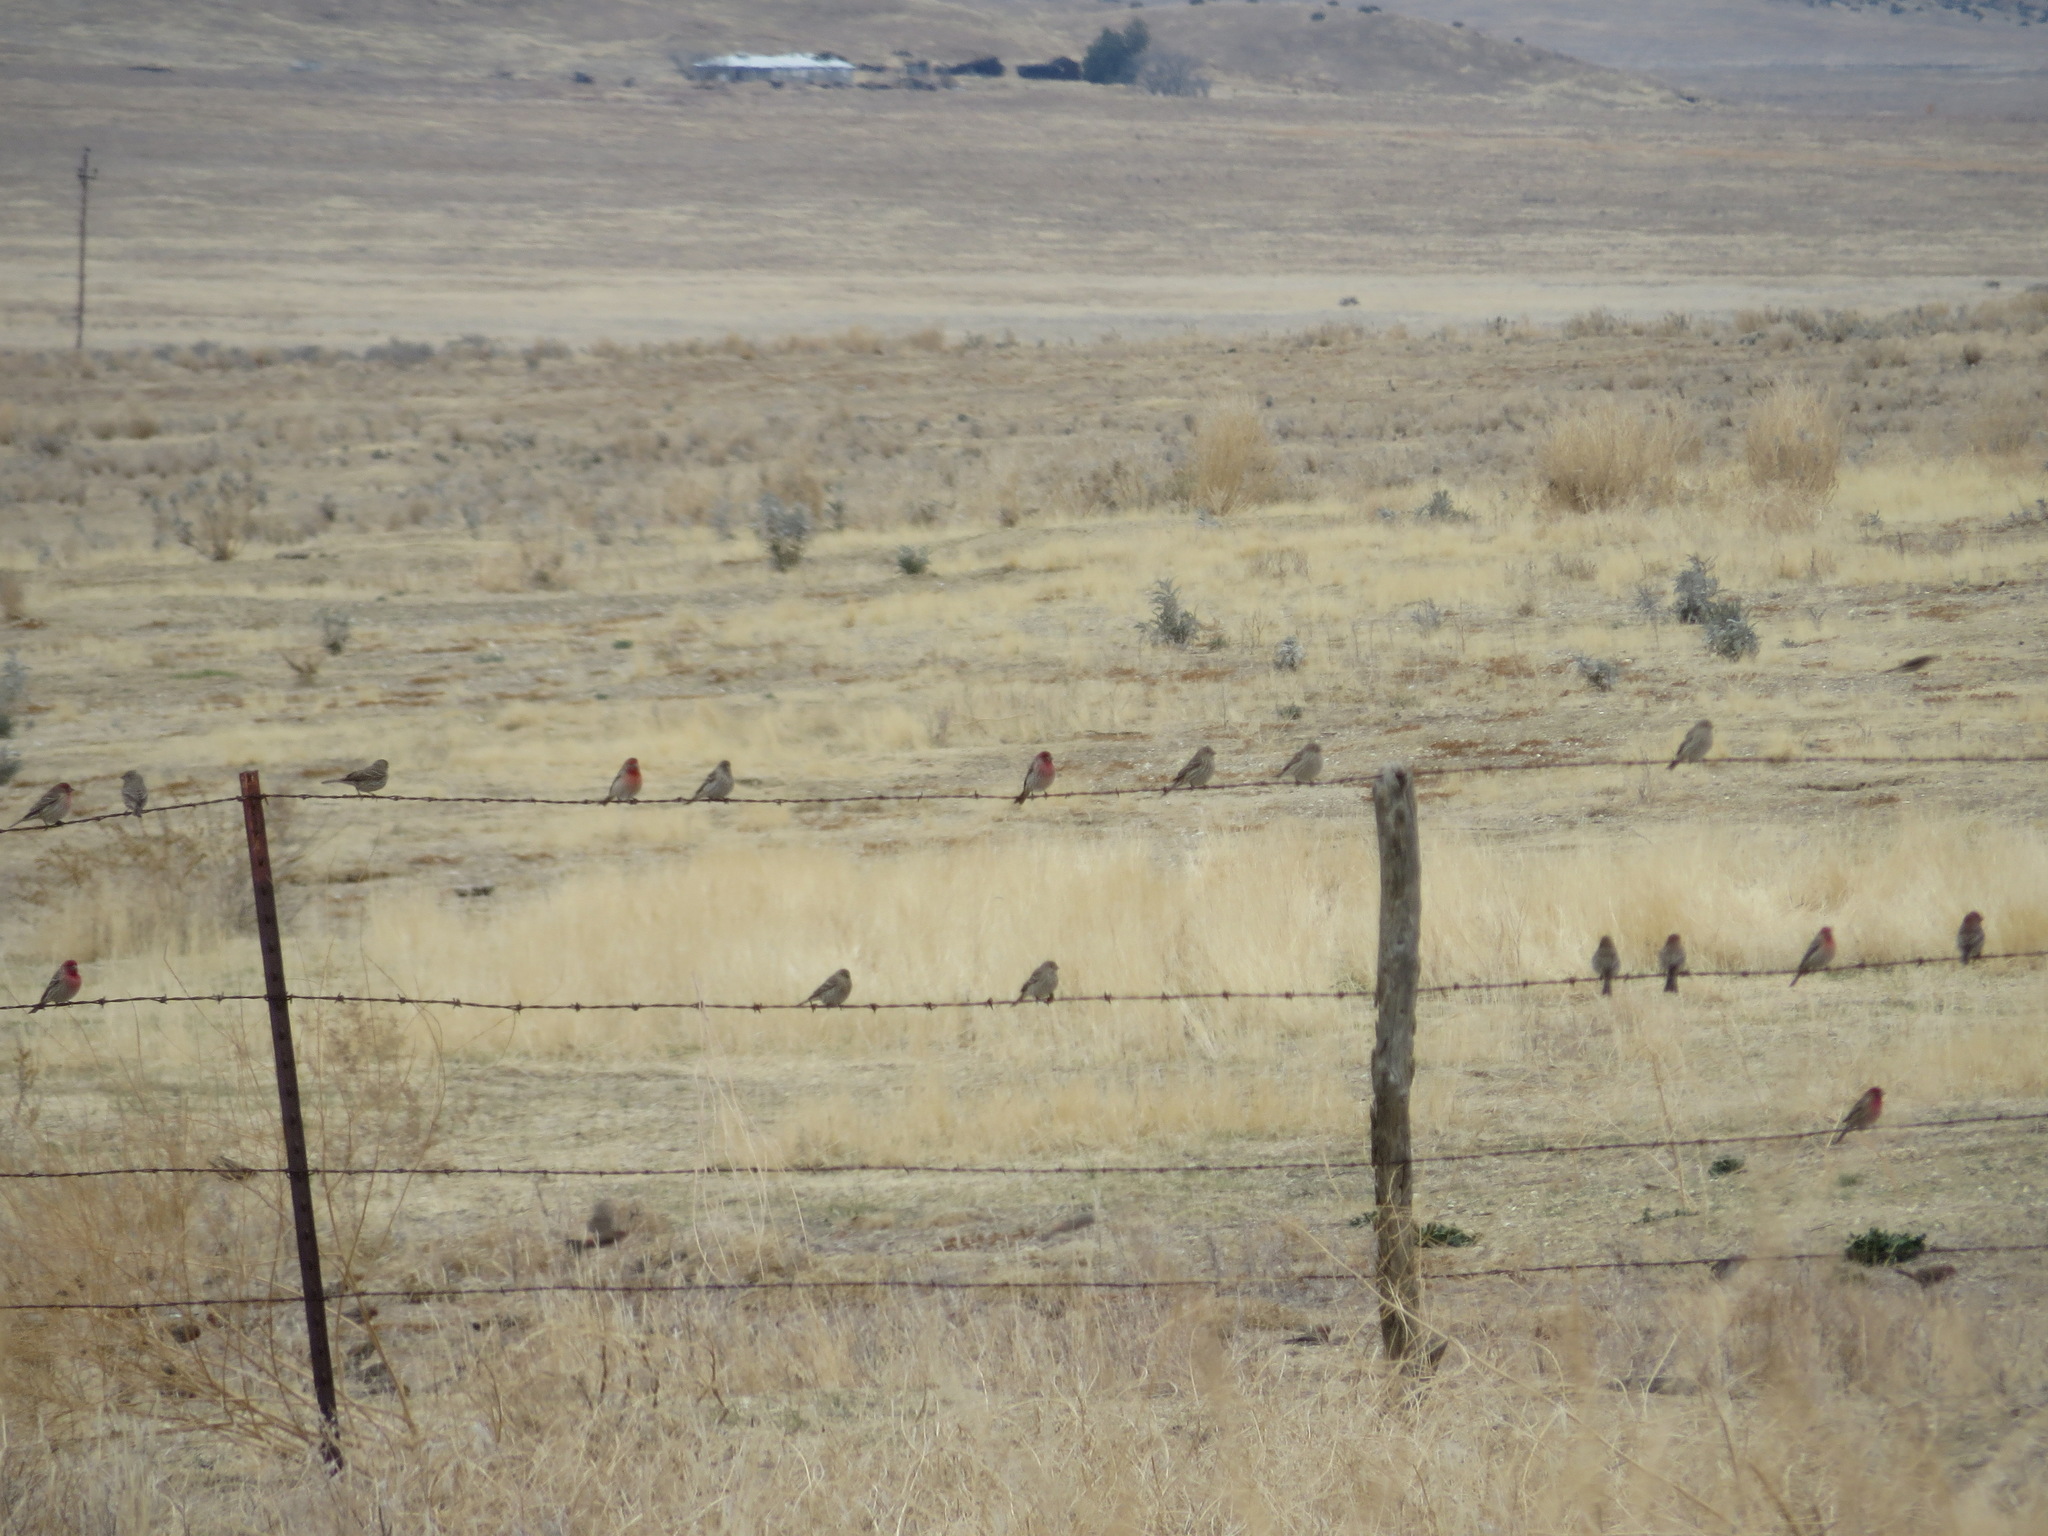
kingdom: Animalia
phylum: Chordata
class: Aves
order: Passeriformes
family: Fringillidae
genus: Haemorhous
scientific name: Haemorhous mexicanus
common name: House finch
